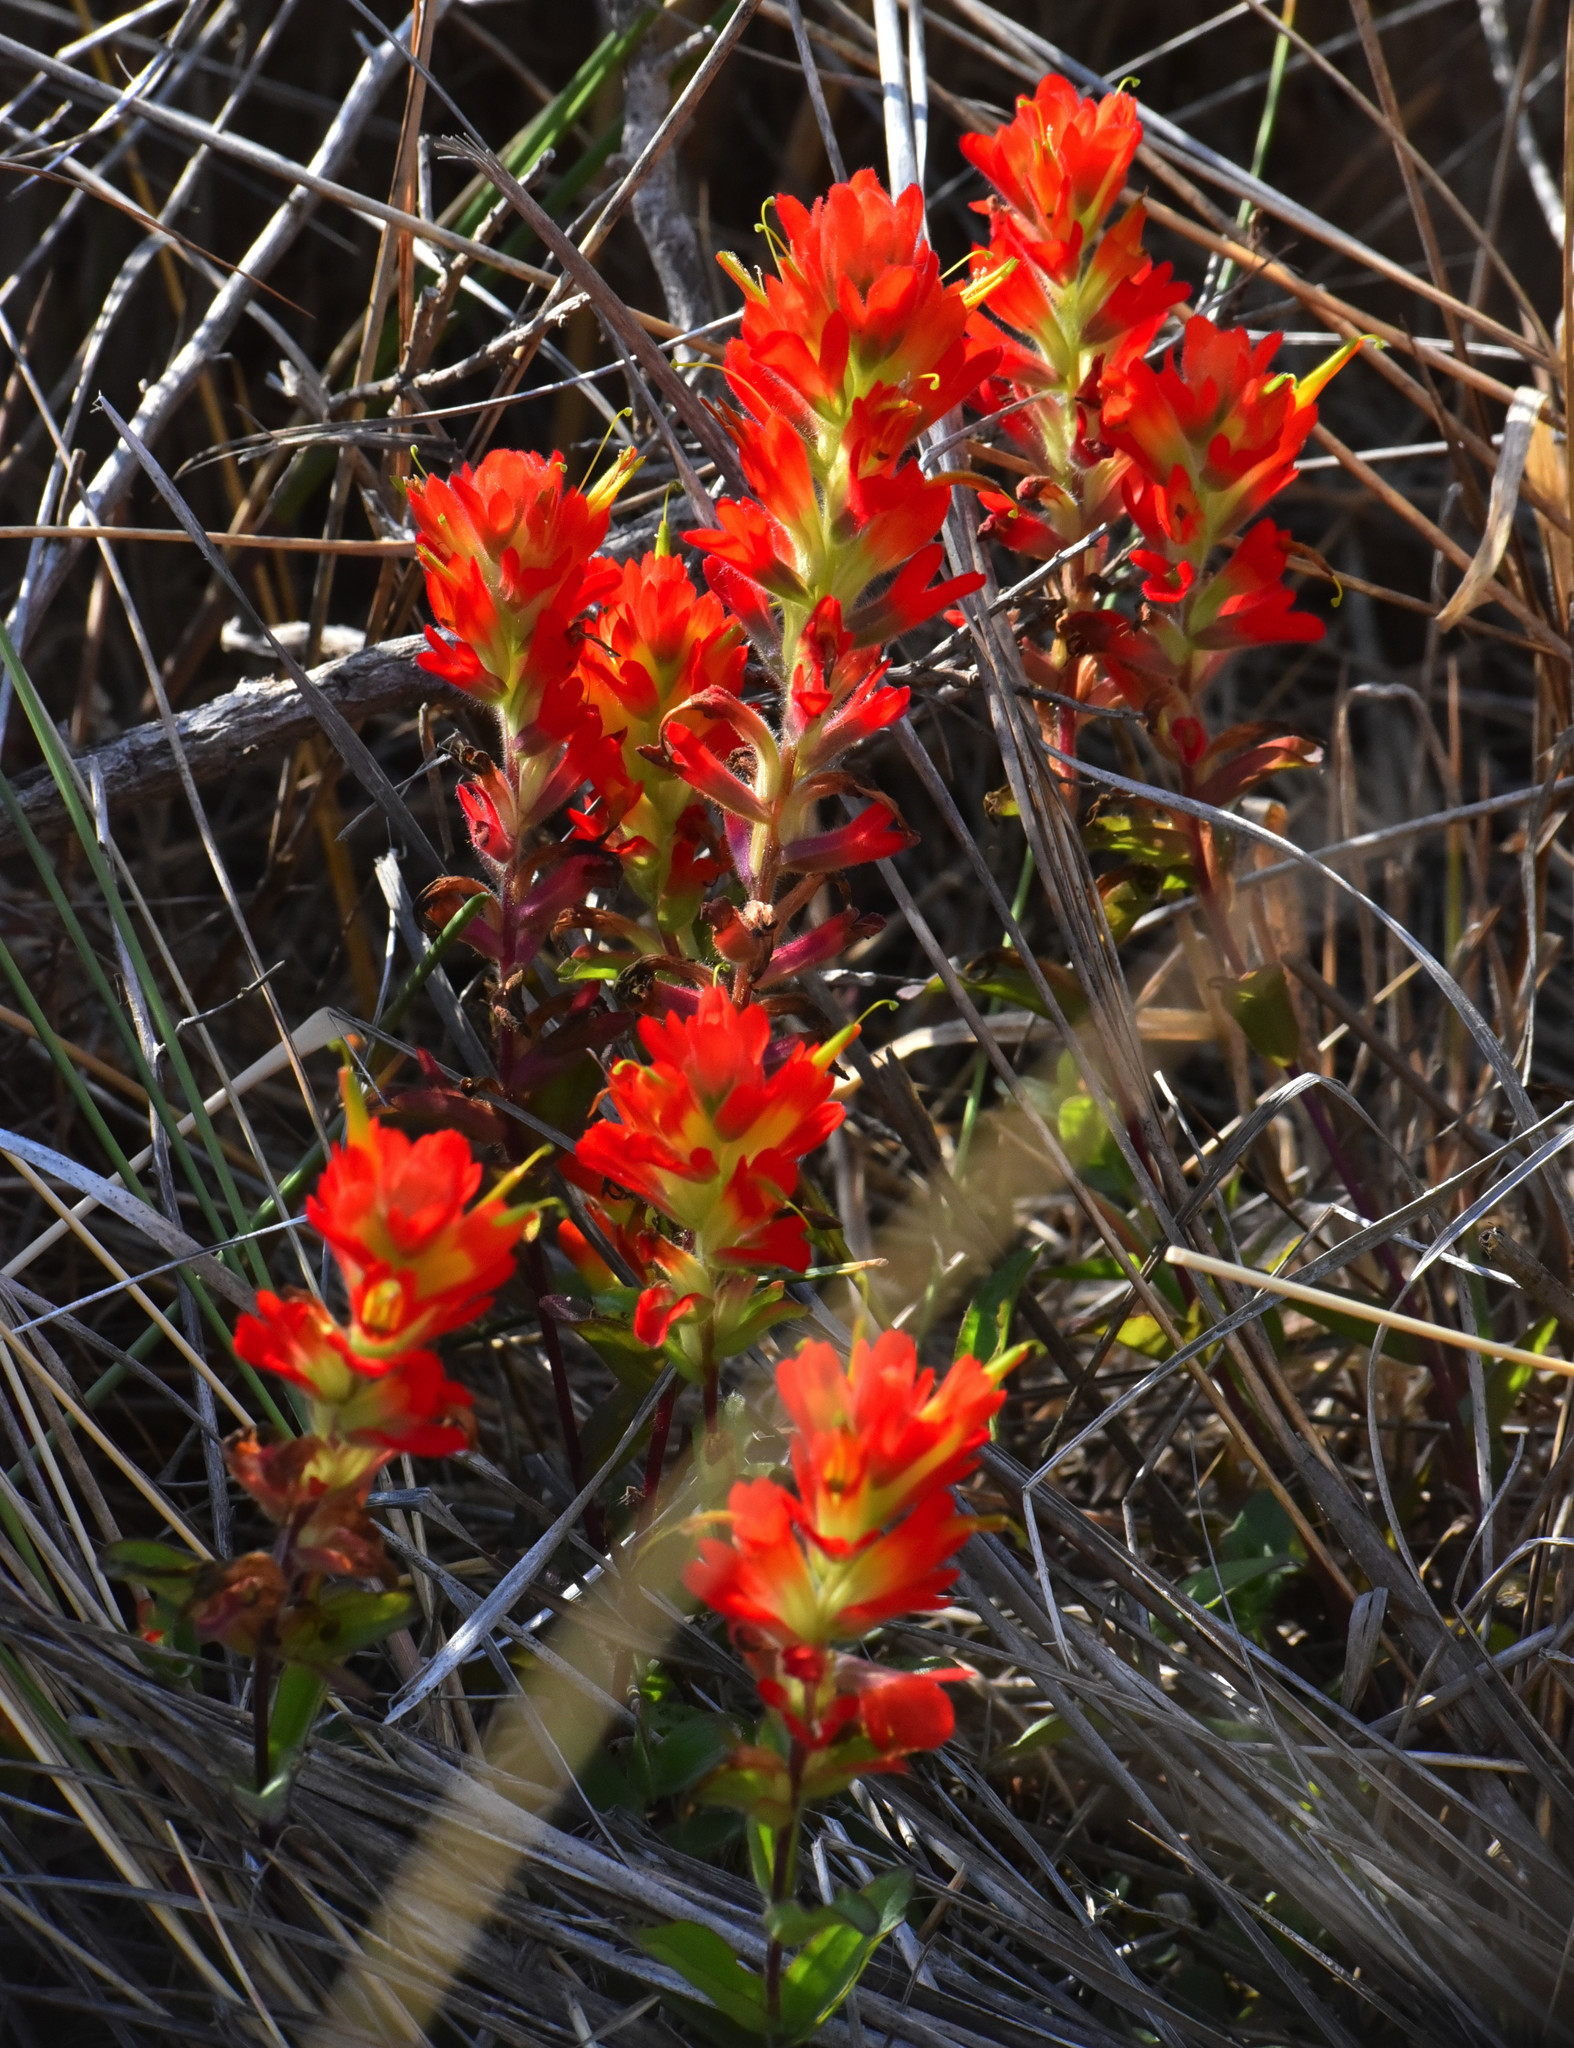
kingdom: Plantae
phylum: Tracheophyta
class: Magnoliopsida
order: Lamiales
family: Orobanchaceae
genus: Castilleja
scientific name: Castilleja affinis
